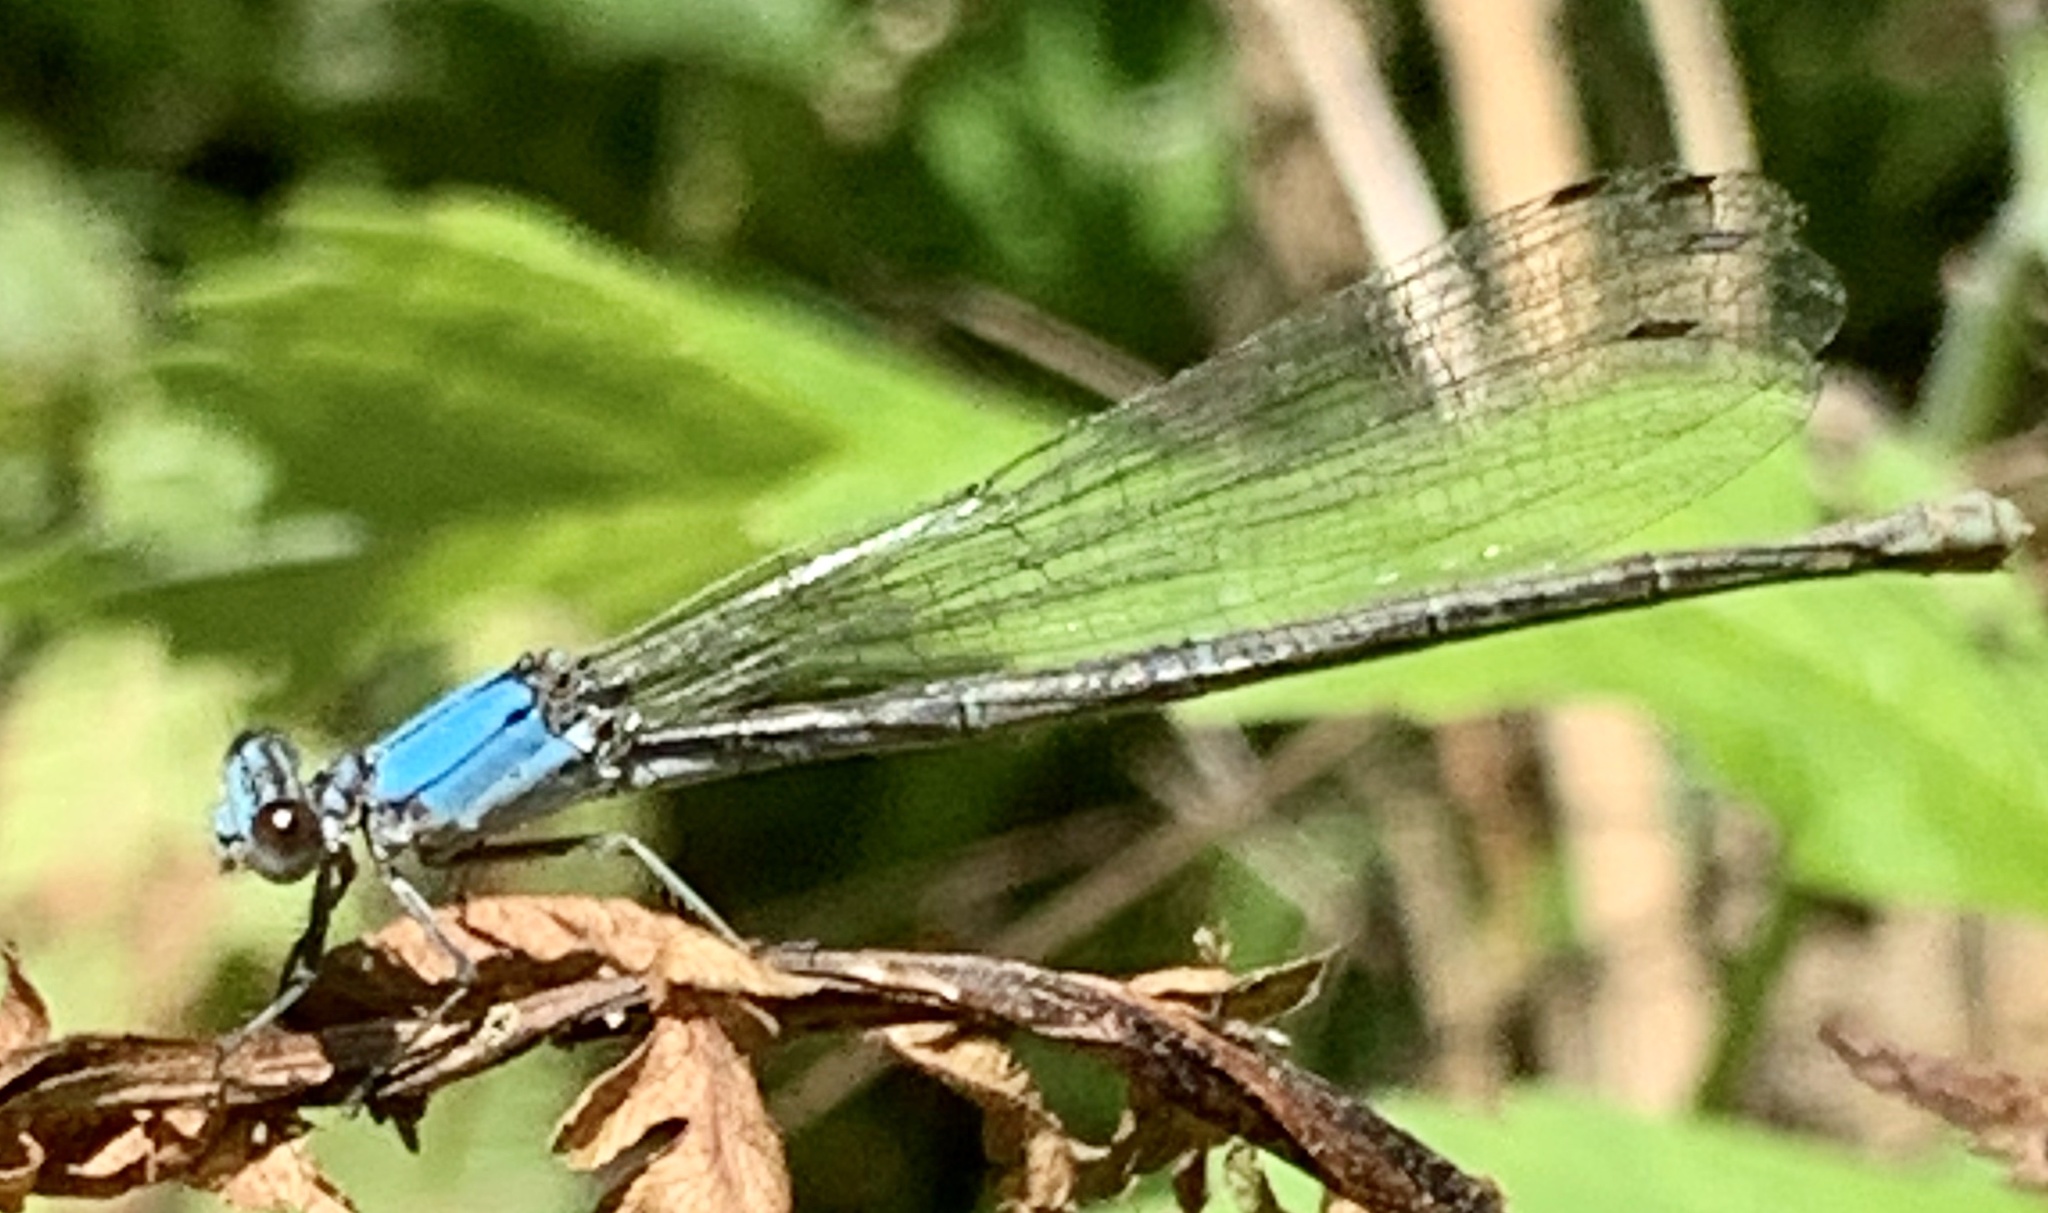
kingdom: Animalia
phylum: Arthropoda
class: Insecta
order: Odonata
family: Coenagrionidae
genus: Argia
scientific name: Argia moesta
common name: Powdered dancer
